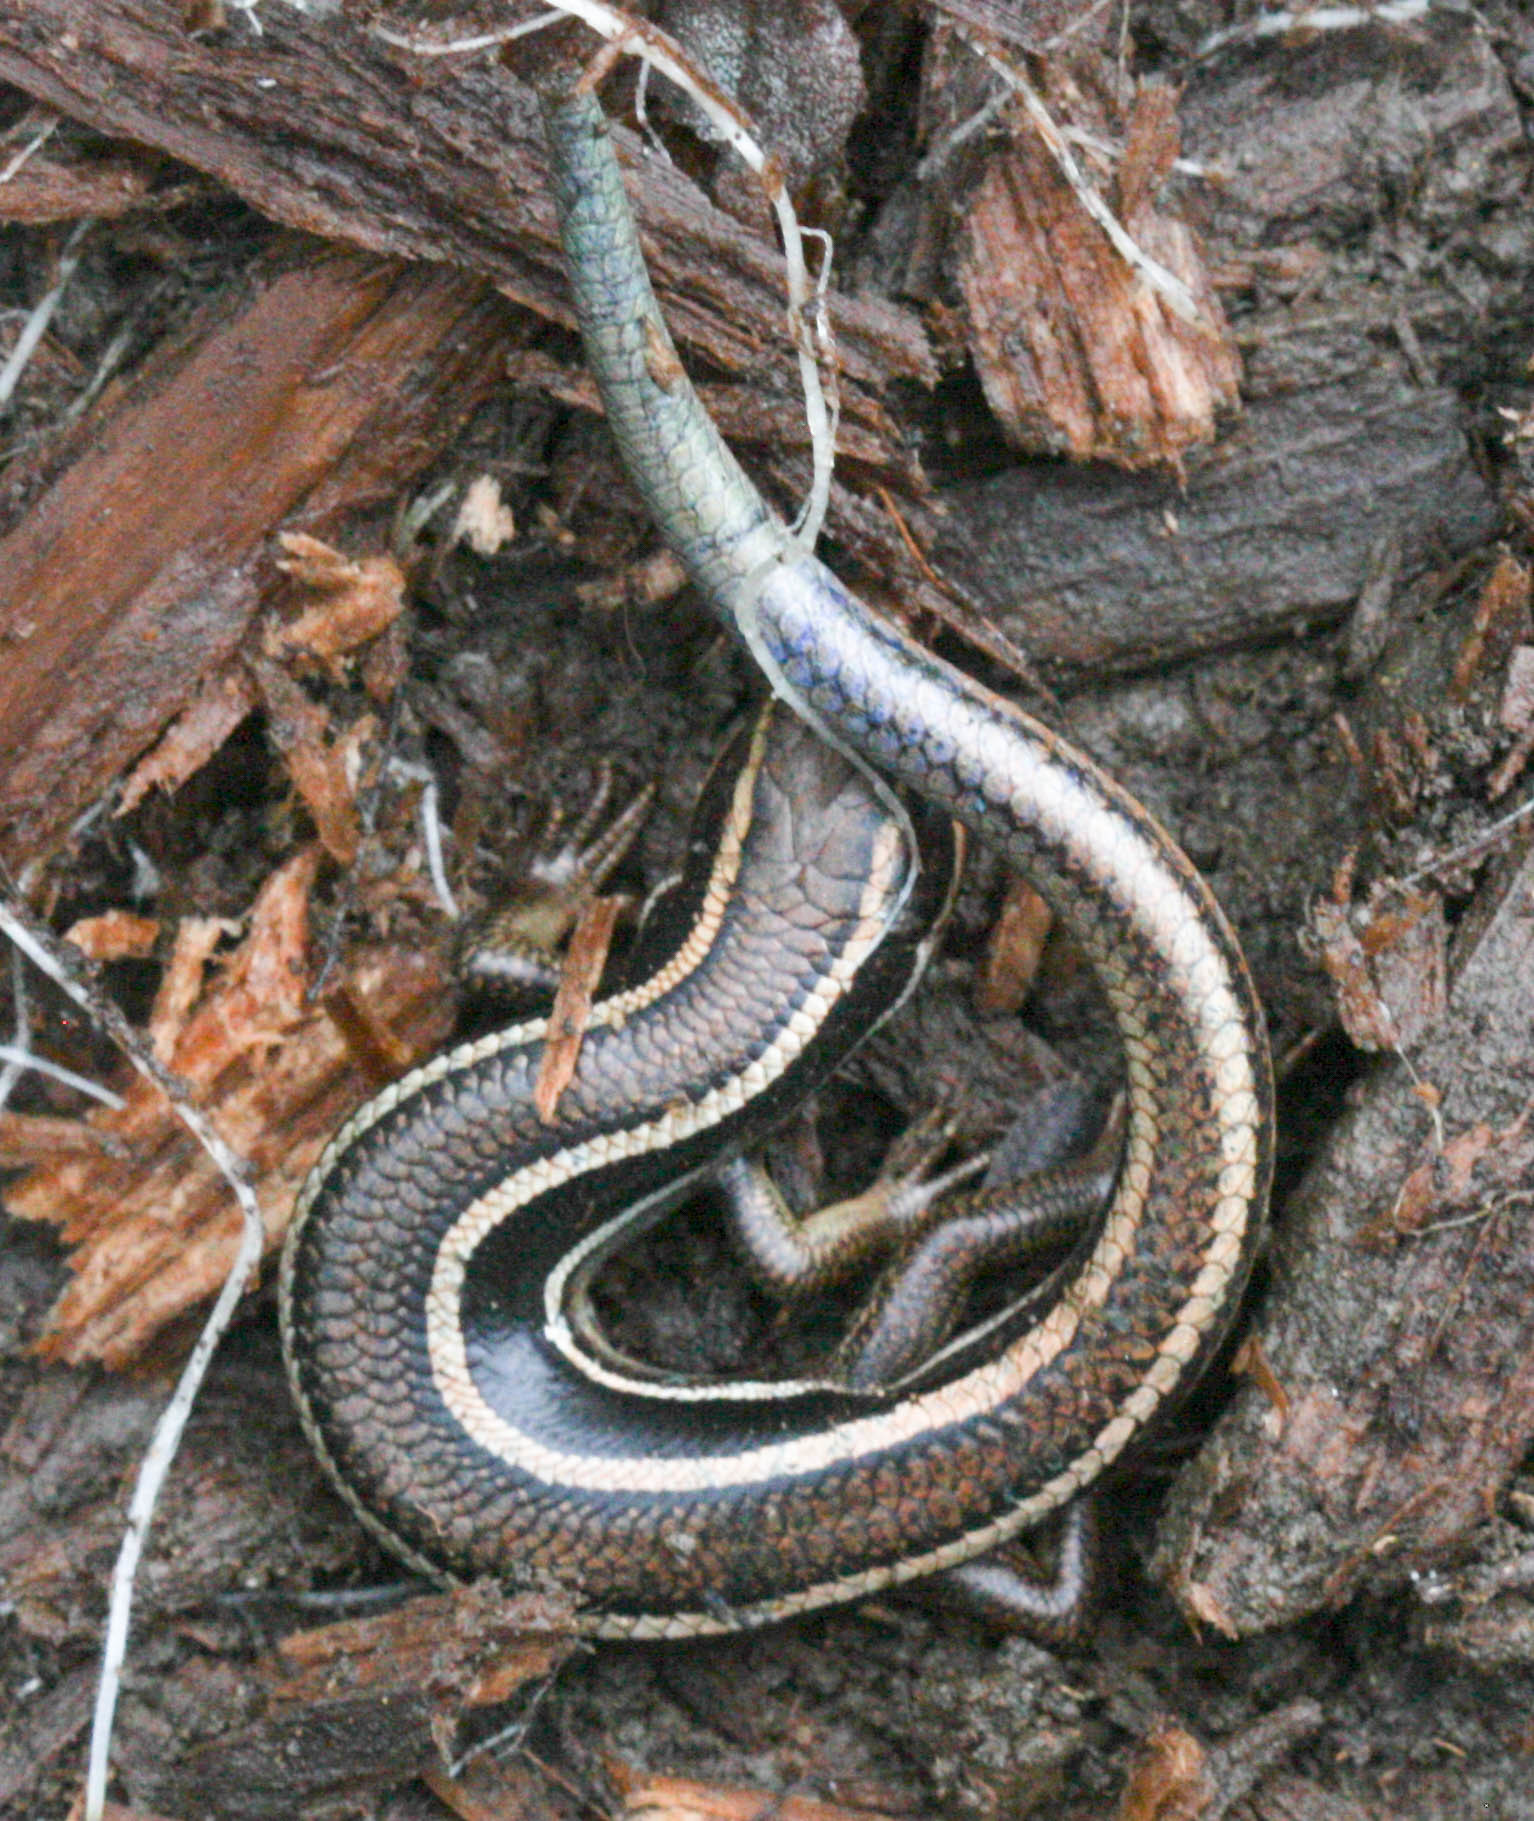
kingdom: Animalia
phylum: Chordata
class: Squamata
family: Scincidae
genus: Plestiodon
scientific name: Plestiodon skiltonianus
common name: Coronado island skink [interparietalis]
